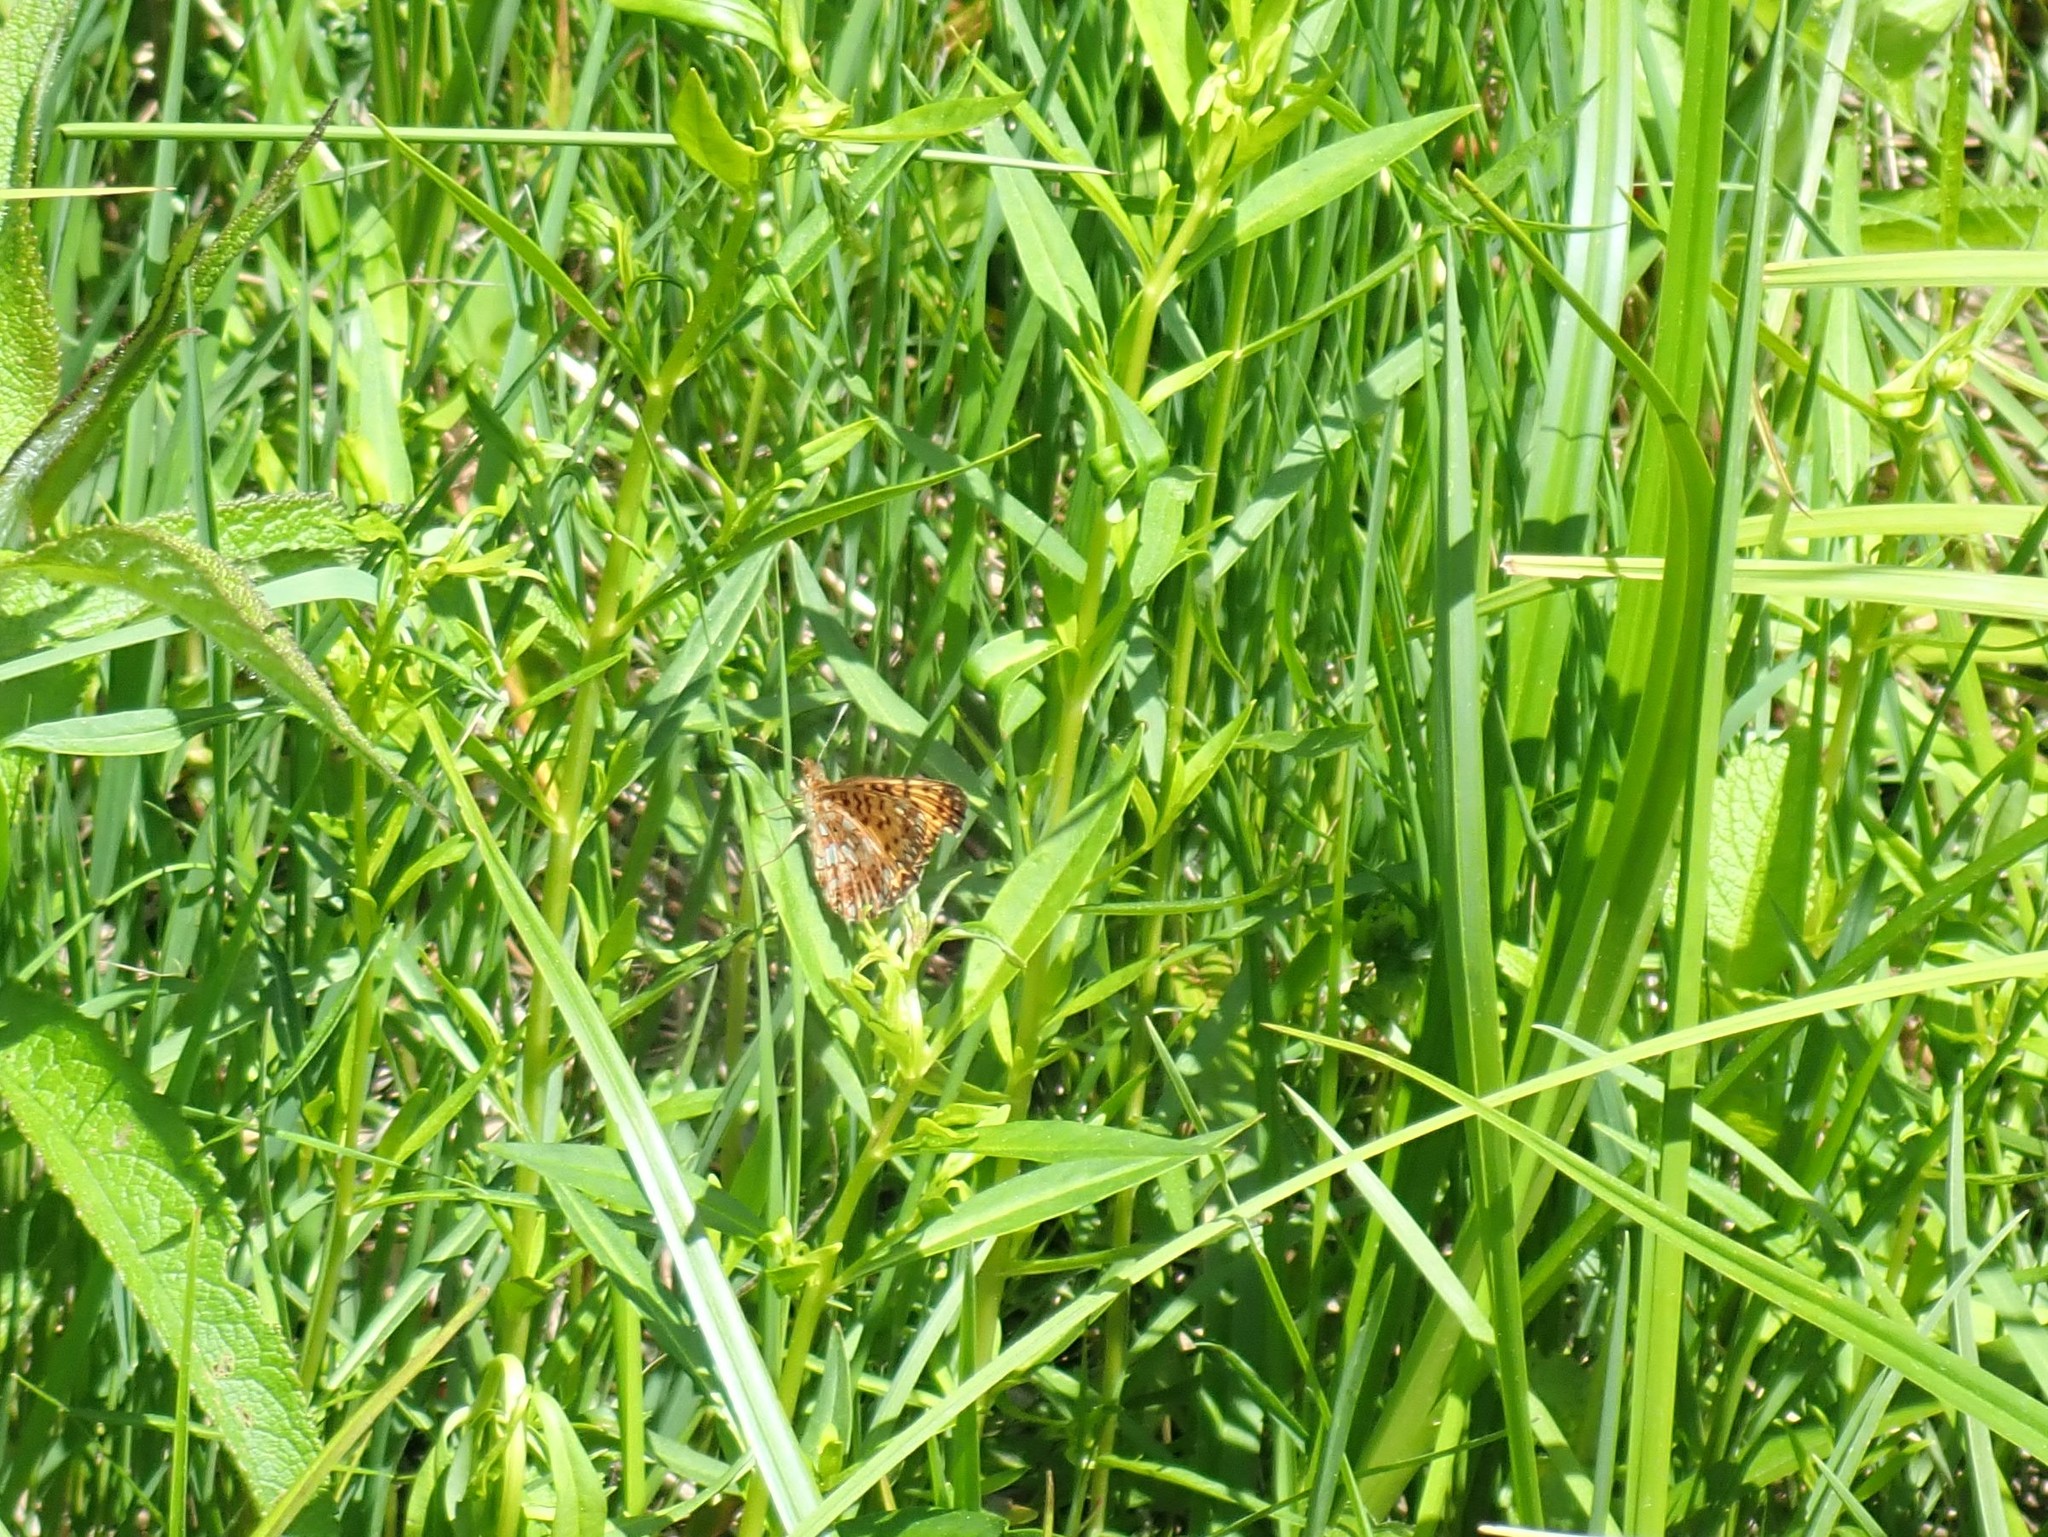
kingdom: Animalia
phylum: Arthropoda
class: Insecta
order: Lepidoptera
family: Nymphalidae
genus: Boloria
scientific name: Boloria
